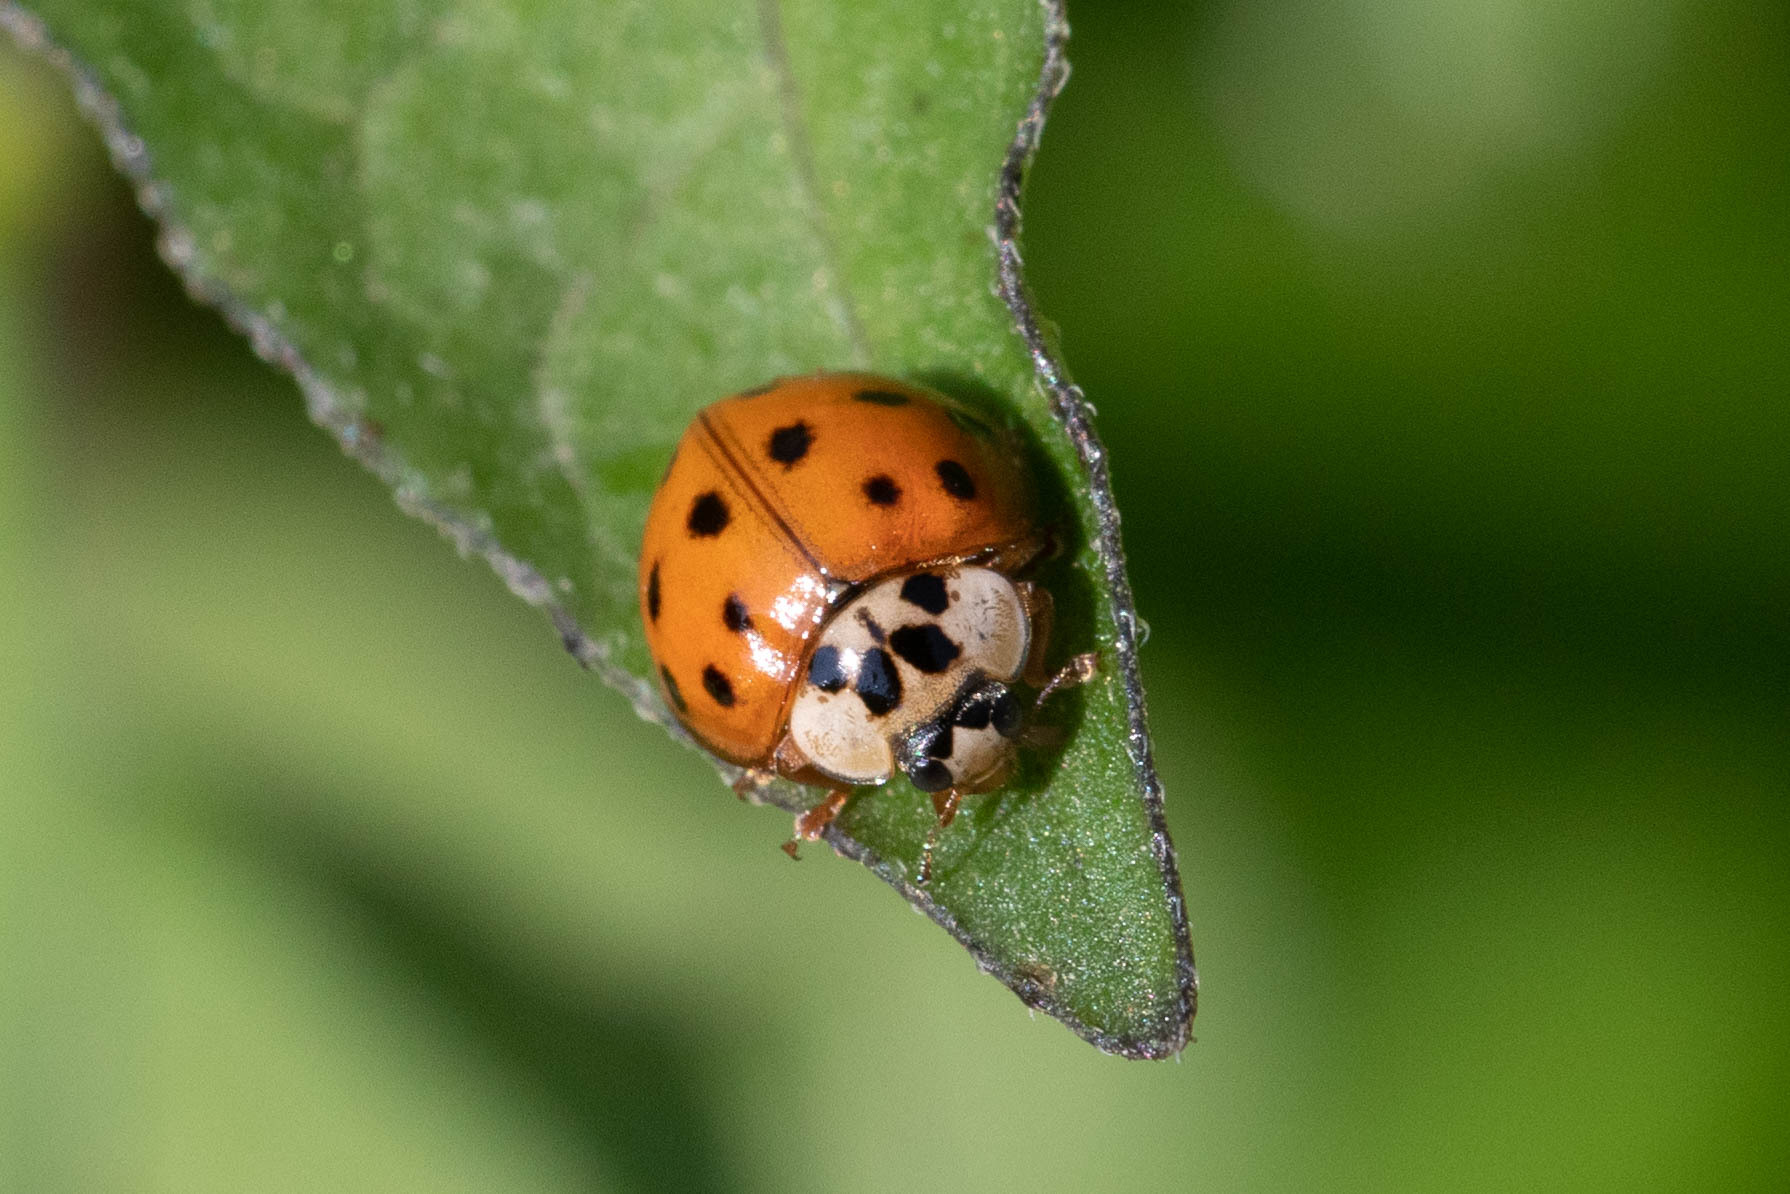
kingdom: Animalia
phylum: Arthropoda
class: Insecta
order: Coleoptera
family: Coccinellidae
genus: Harmonia
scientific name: Harmonia axyridis
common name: Harlequin ladybird
